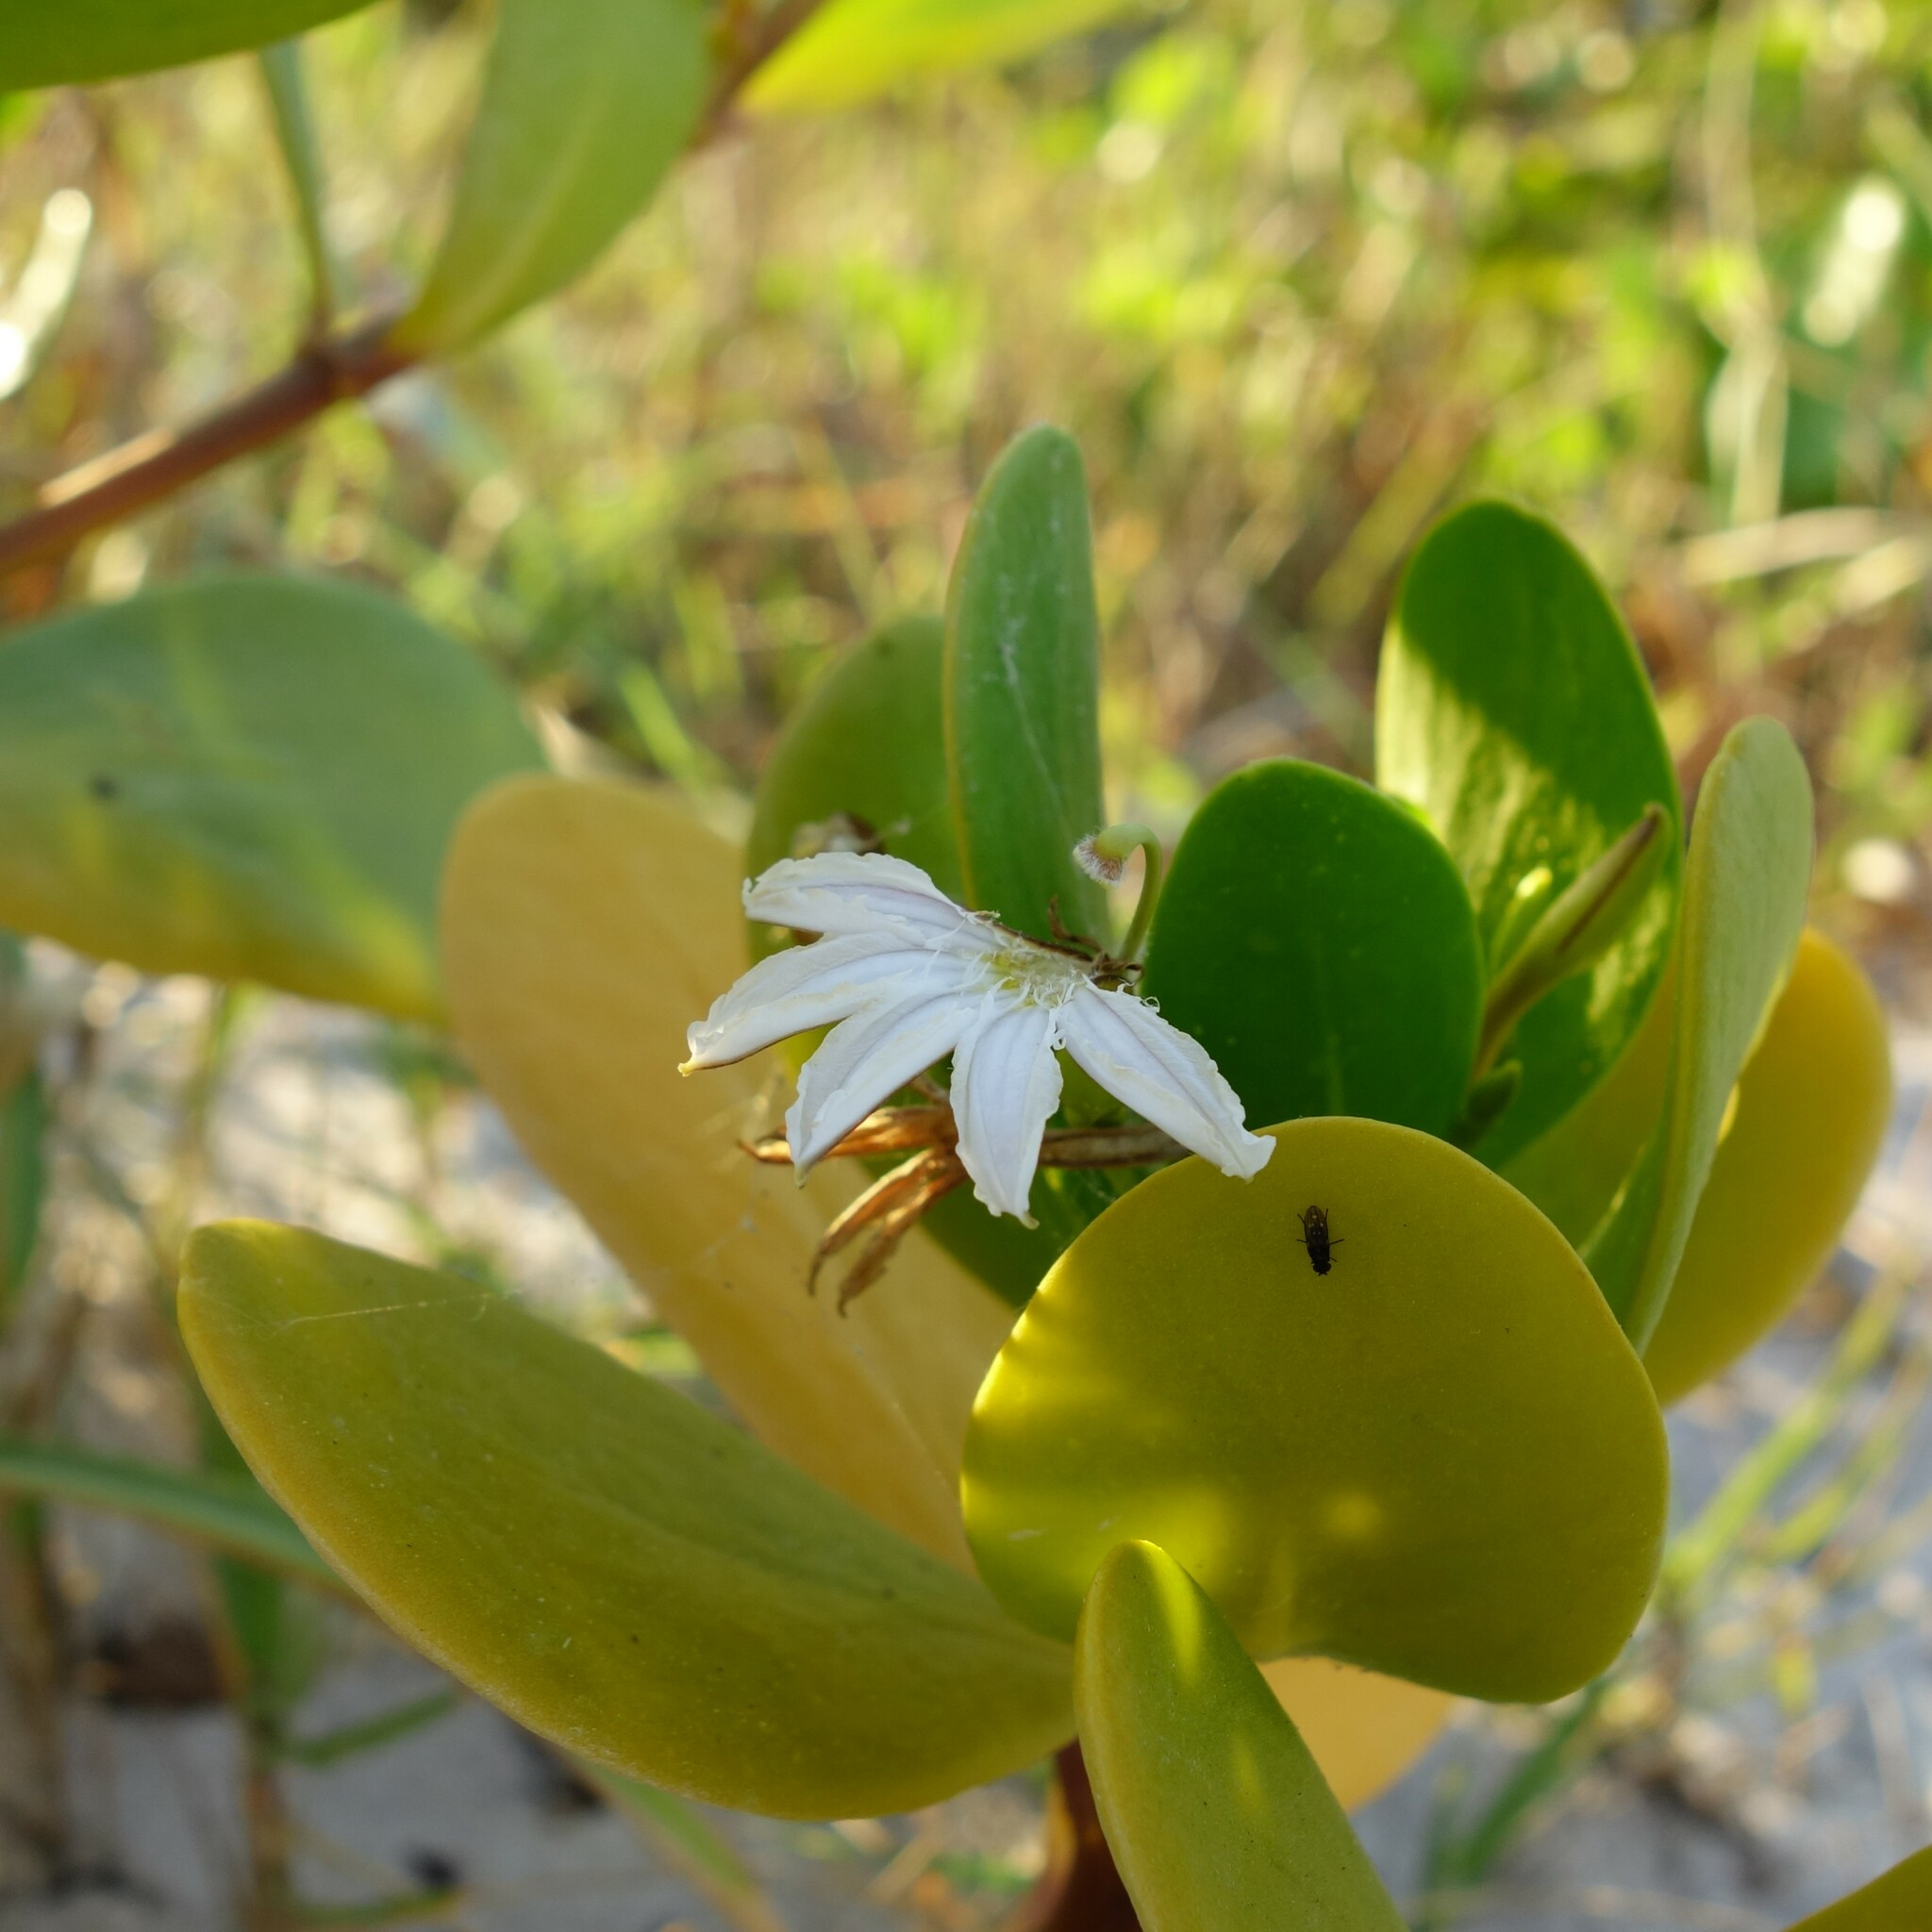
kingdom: Plantae
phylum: Tracheophyta
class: Magnoliopsida
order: Asterales
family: Goodeniaceae
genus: Scaevola
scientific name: Scaevola plumieri
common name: Gull feed
